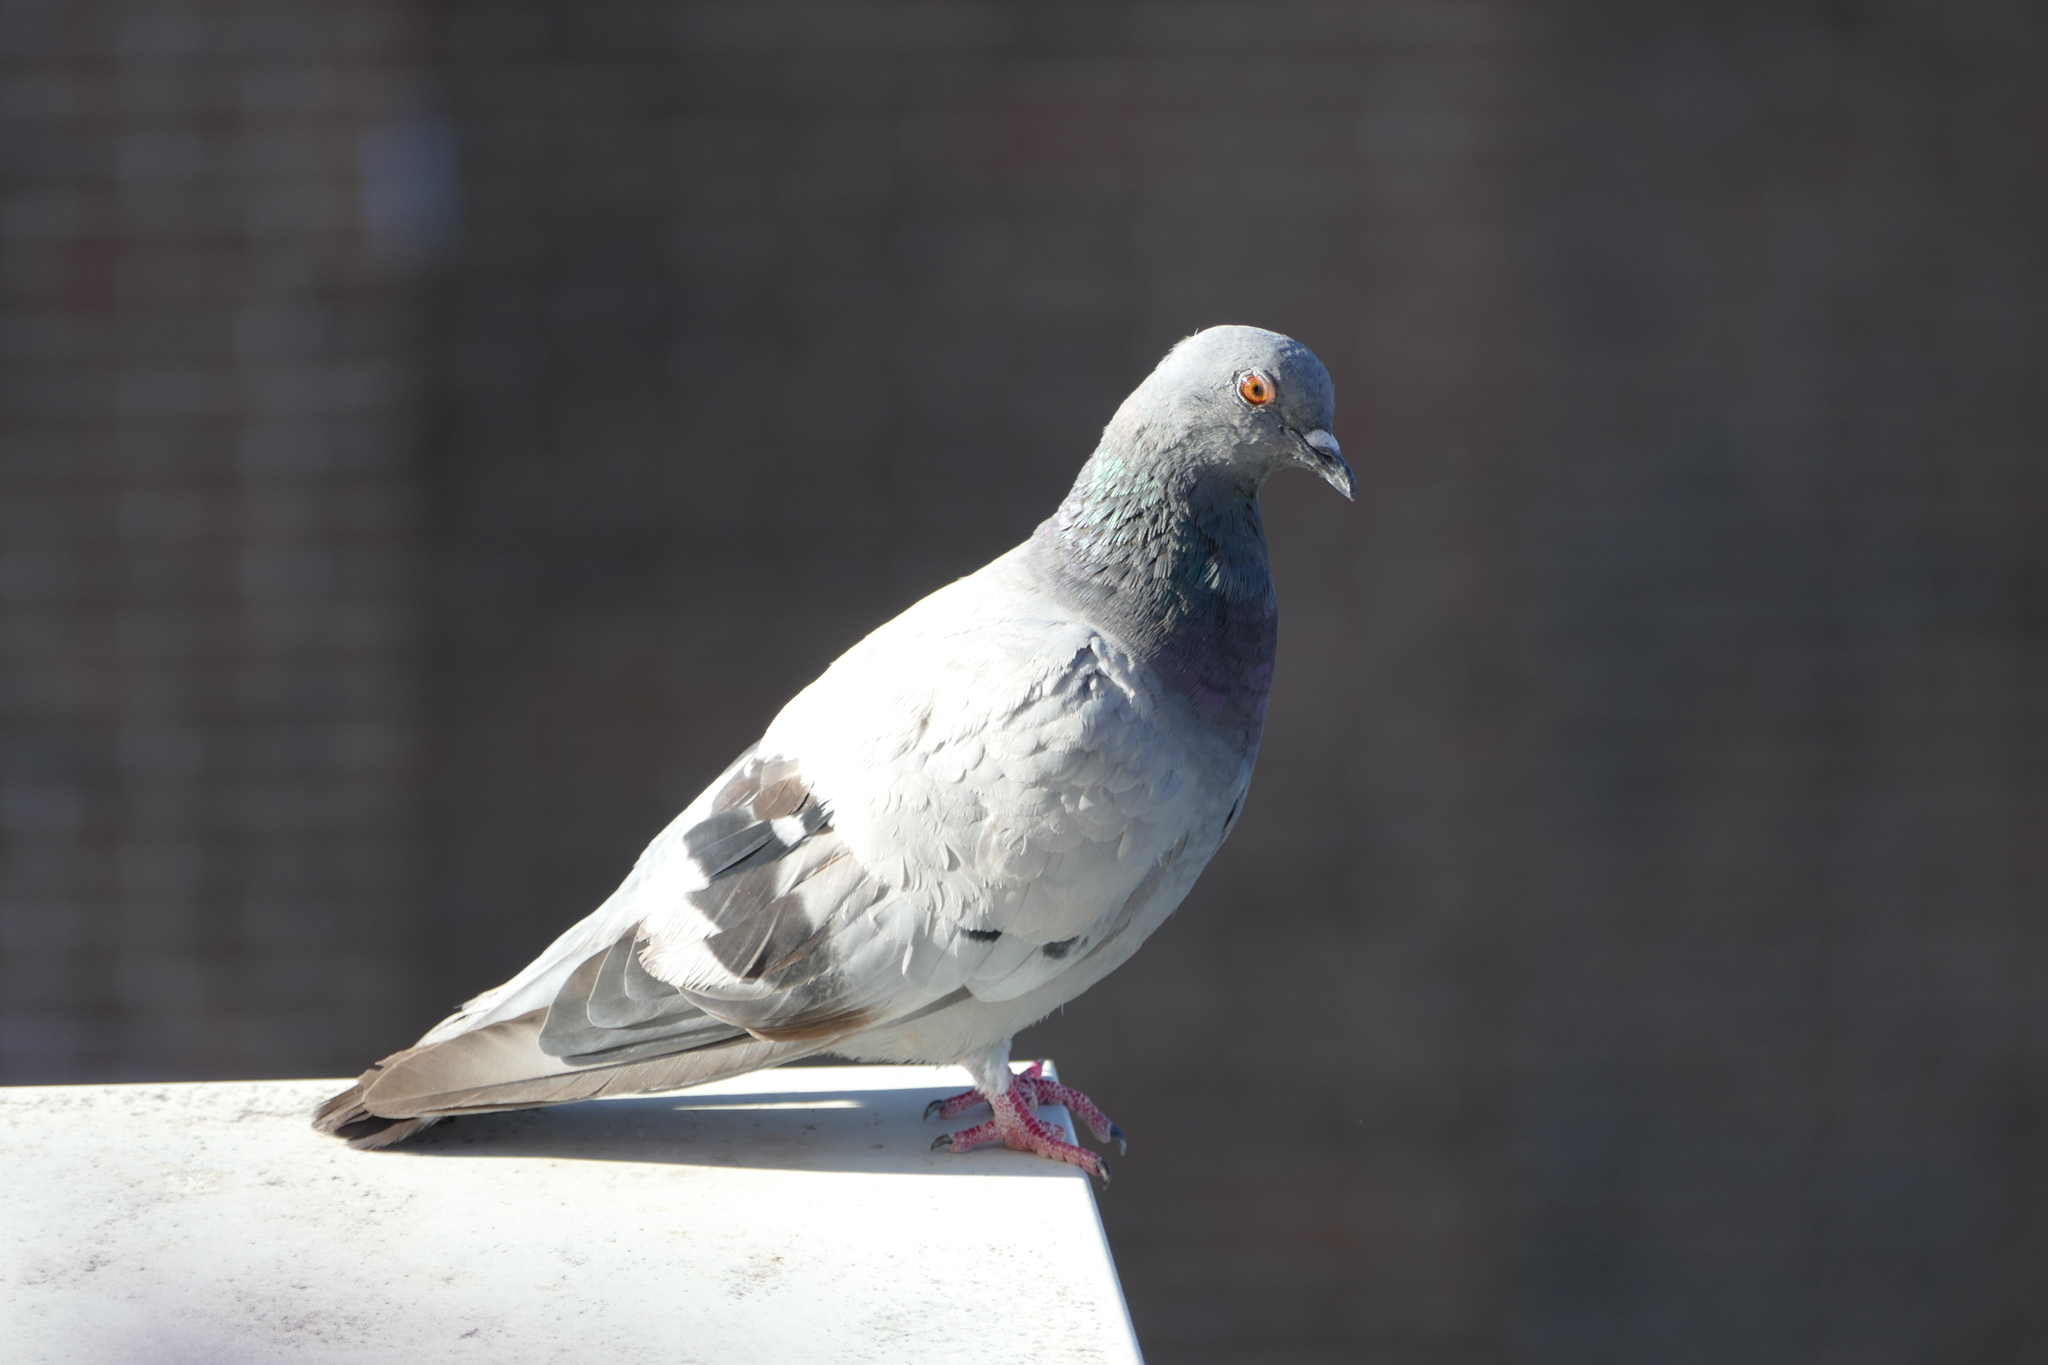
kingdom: Animalia
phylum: Chordata
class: Aves
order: Columbiformes
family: Columbidae
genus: Columba
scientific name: Columba livia
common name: Rock pigeon
